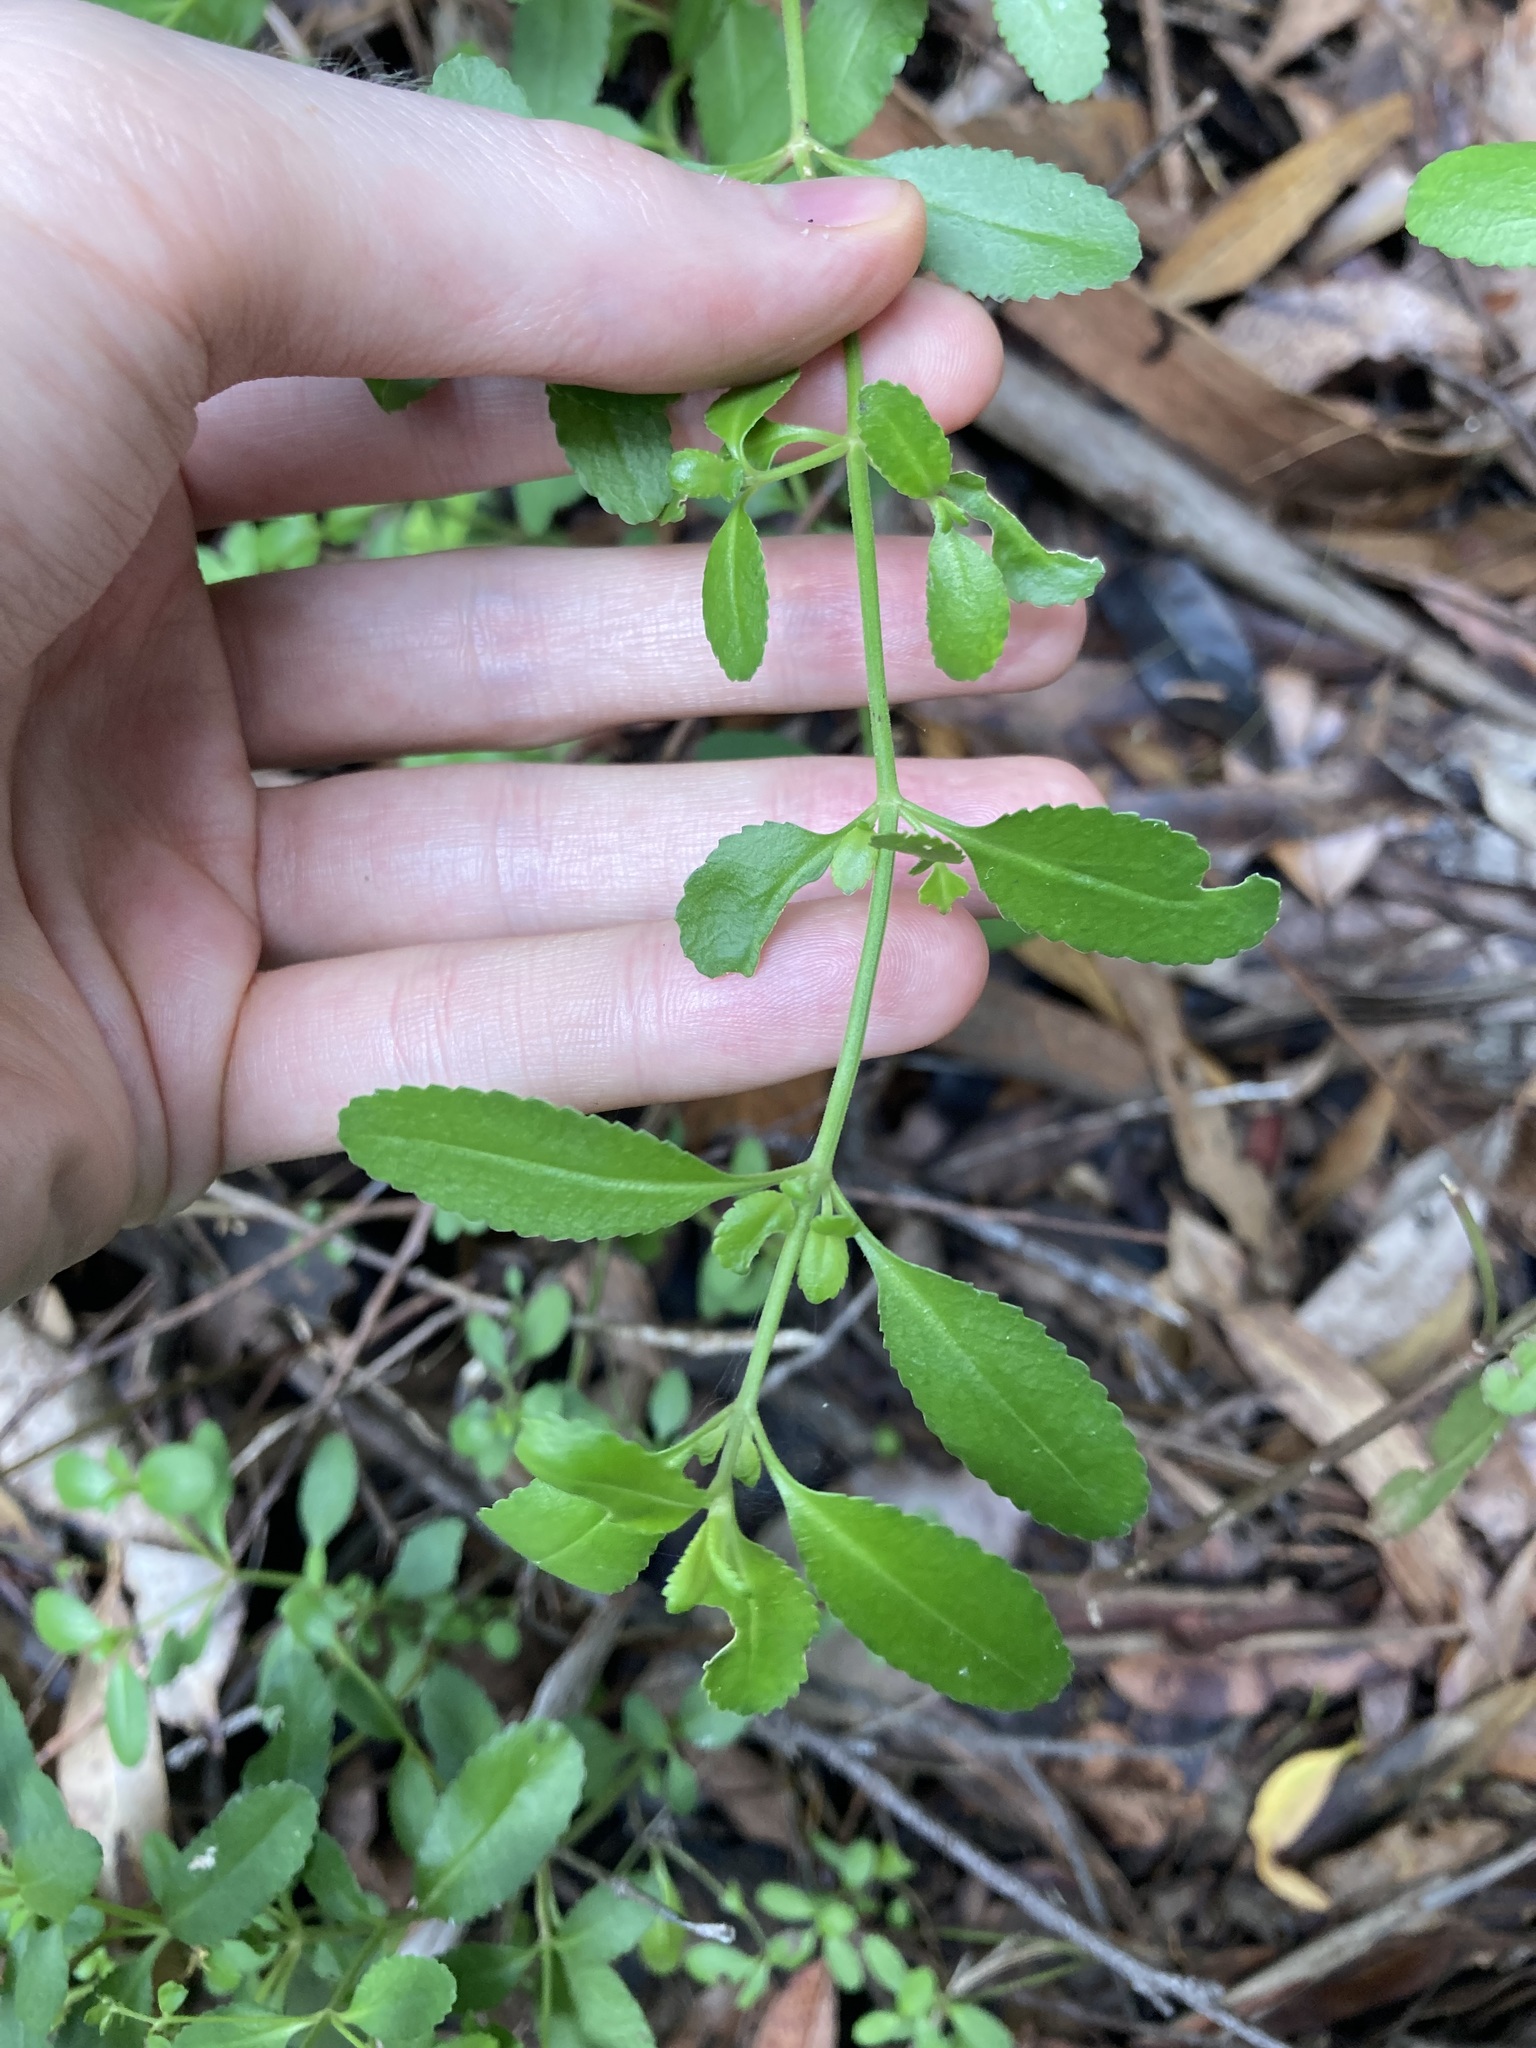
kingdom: Plantae
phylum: Tracheophyta
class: Magnoliopsida
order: Saxifragales
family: Haloragaceae
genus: Gonocarpus
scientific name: Gonocarpus oreophilus
